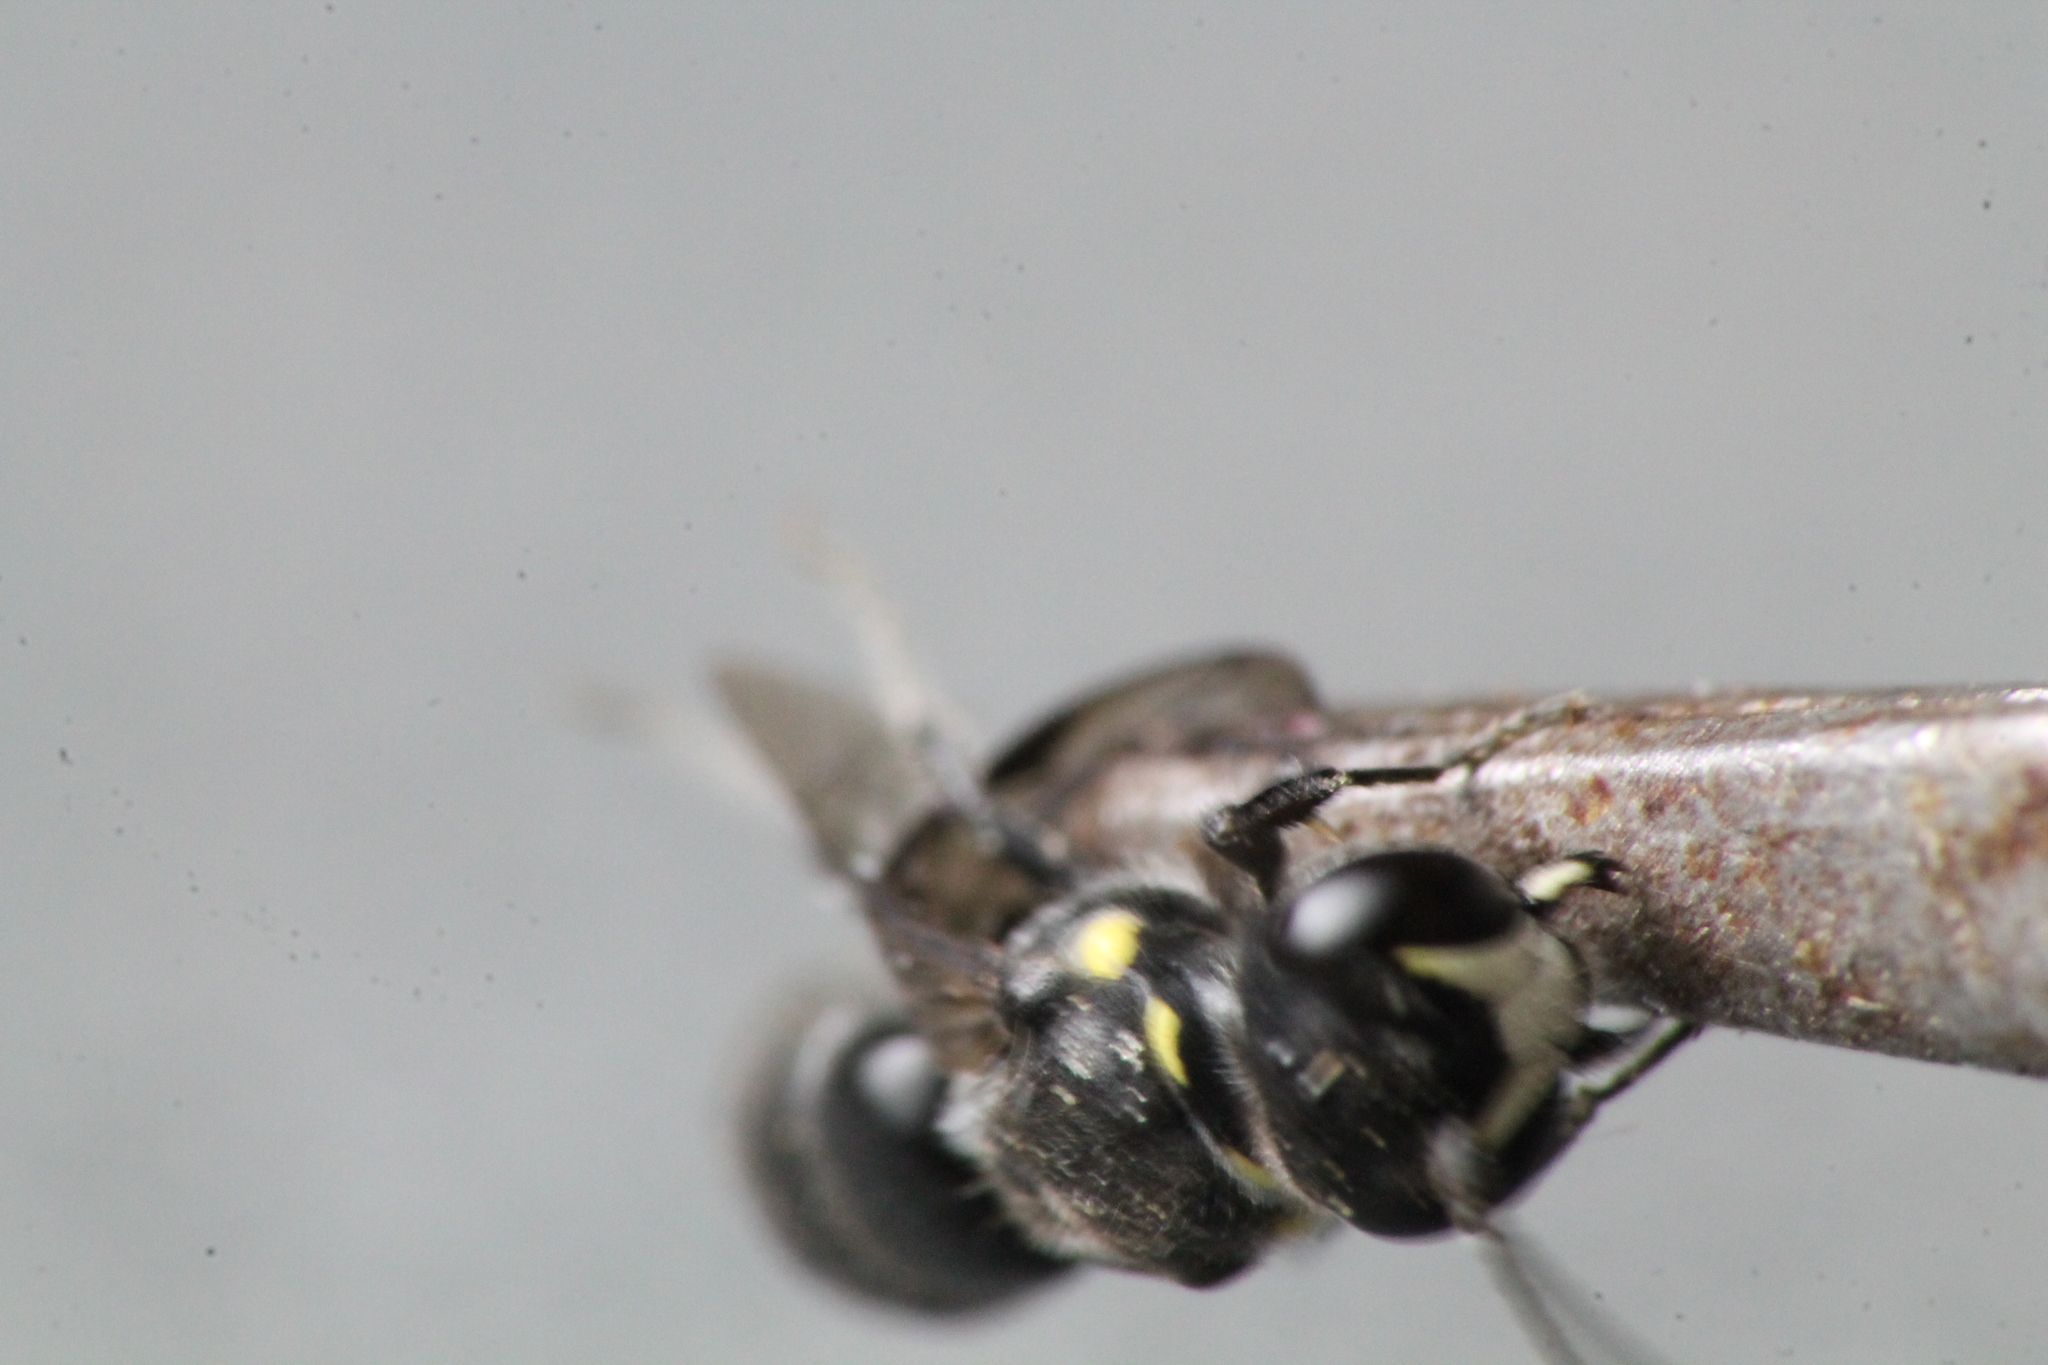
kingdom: Animalia
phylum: Arthropoda
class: Insecta
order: Hymenoptera
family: Colletidae
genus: Hylaeus
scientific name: Hylaeus relegatus
